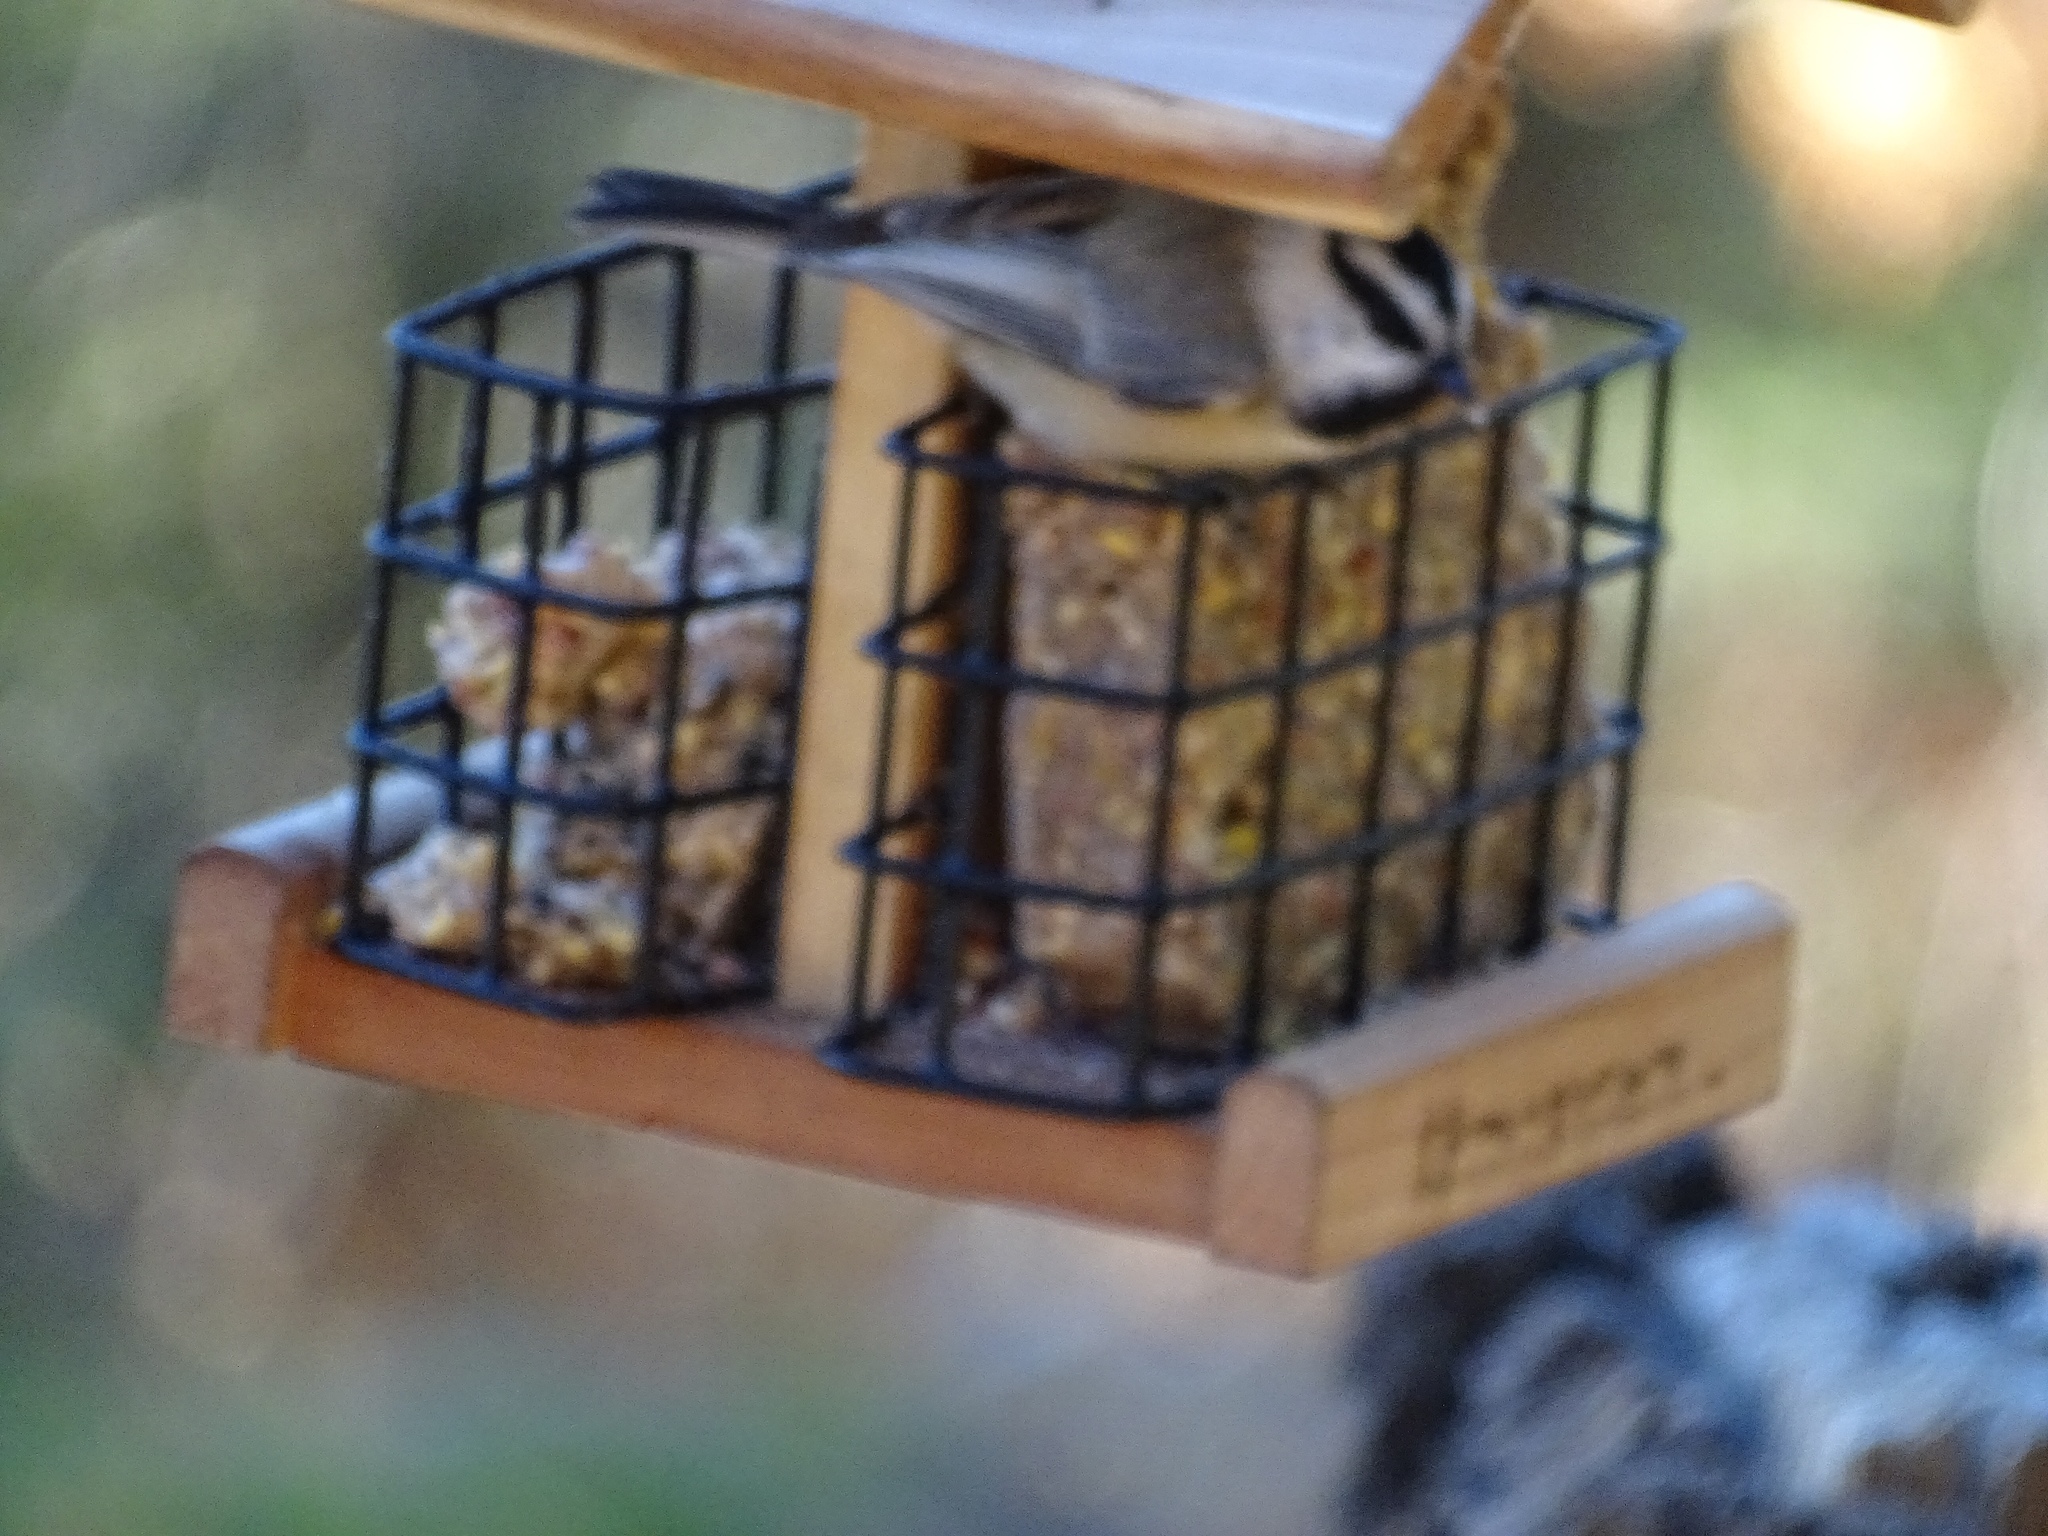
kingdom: Animalia
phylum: Chordata
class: Aves
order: Passeriformes
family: Paridae
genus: Poecile
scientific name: Poecile gambeli
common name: Mountain chickadee
